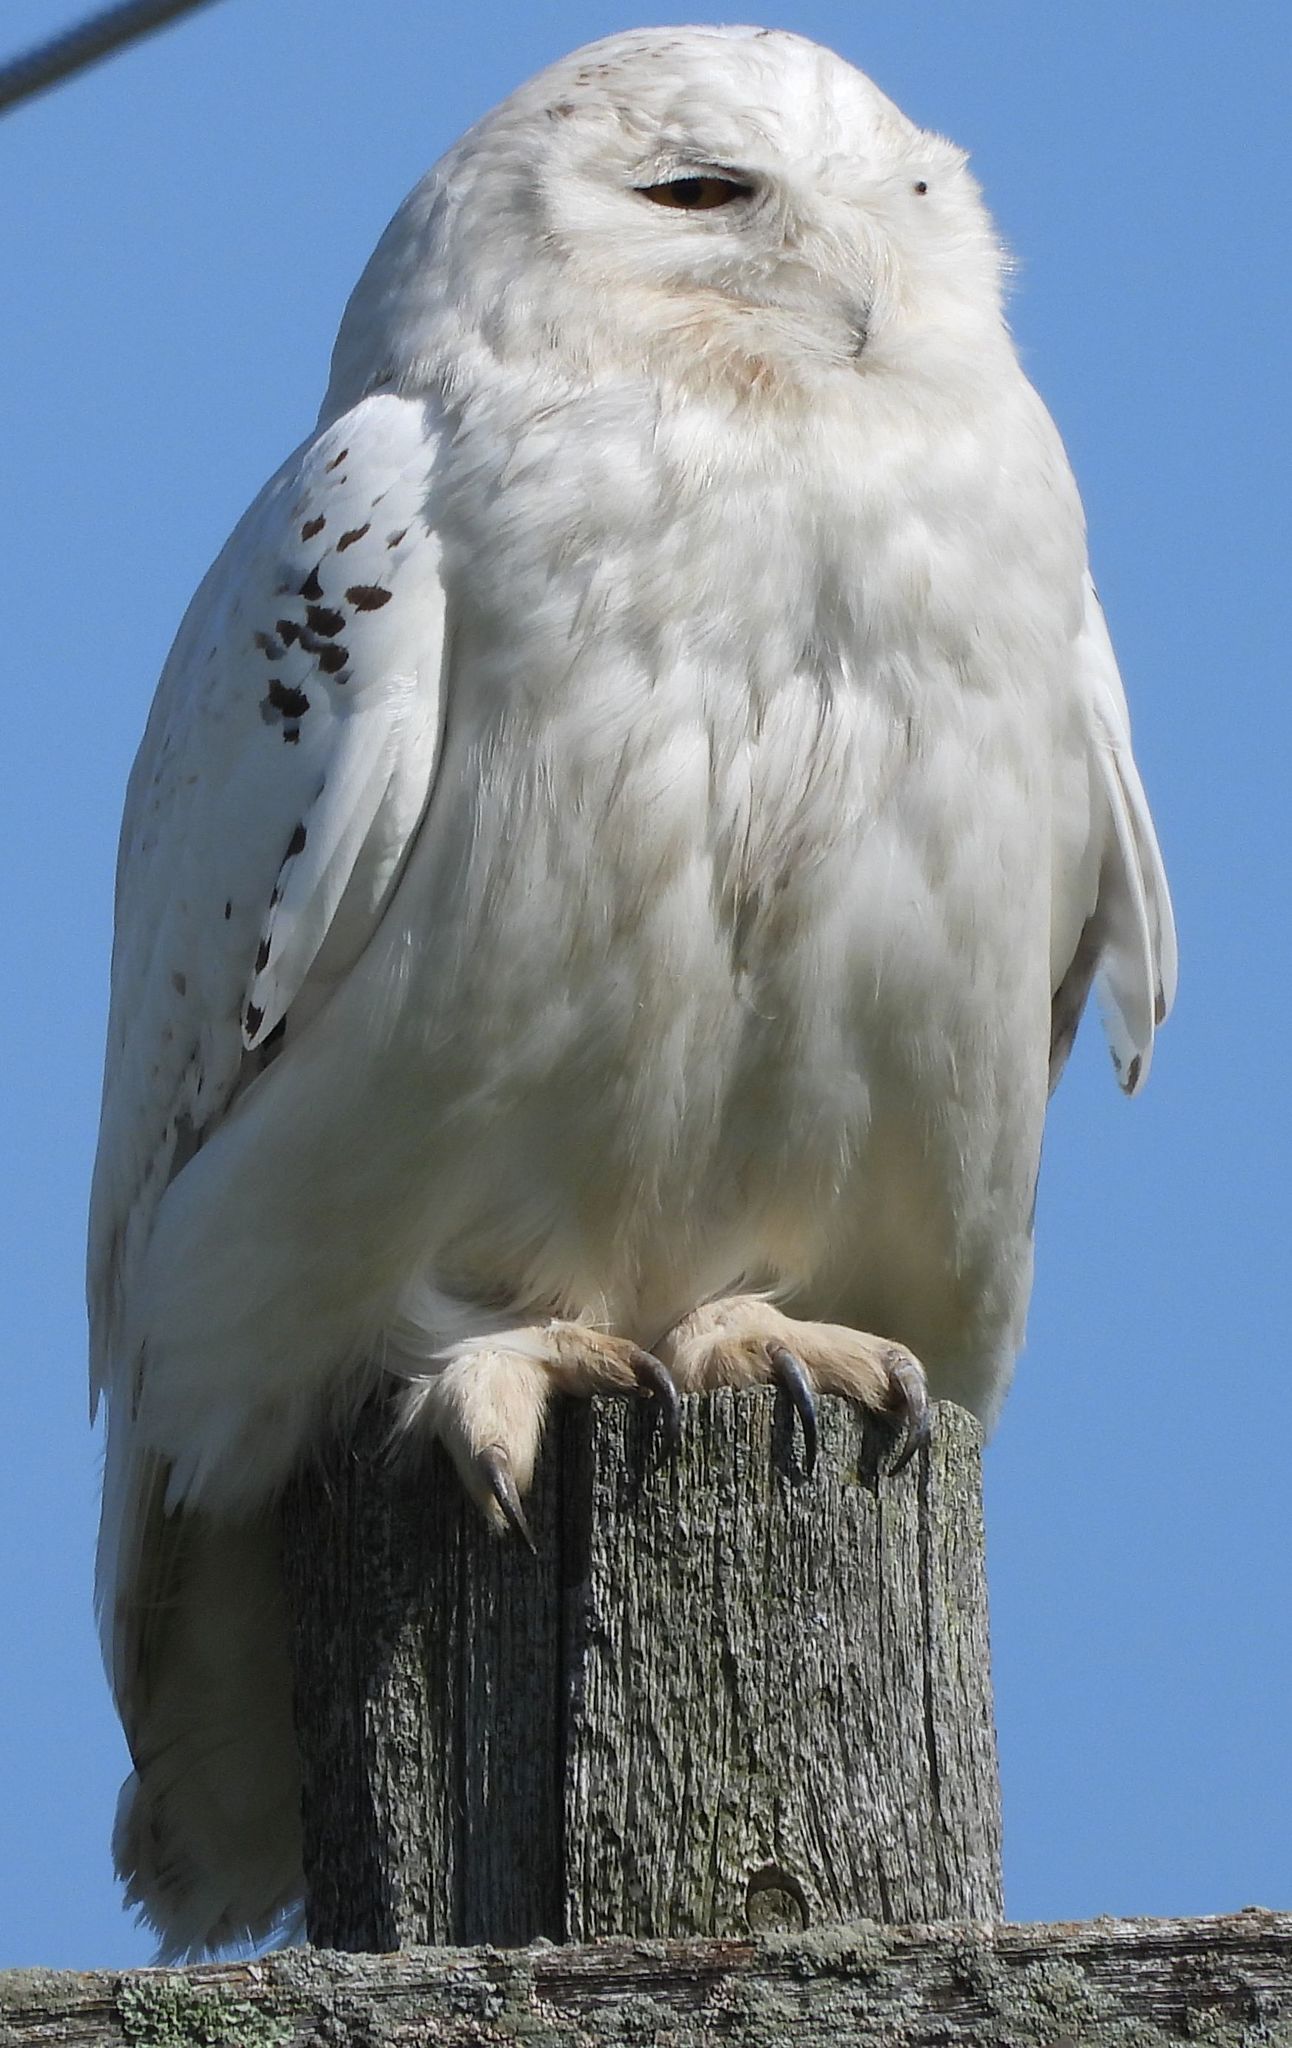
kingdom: Animalia
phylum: Chordata
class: Aves
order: Strigiformes
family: Strigidae
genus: Bubo
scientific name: Bubo scandiacus
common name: Snowy owl
